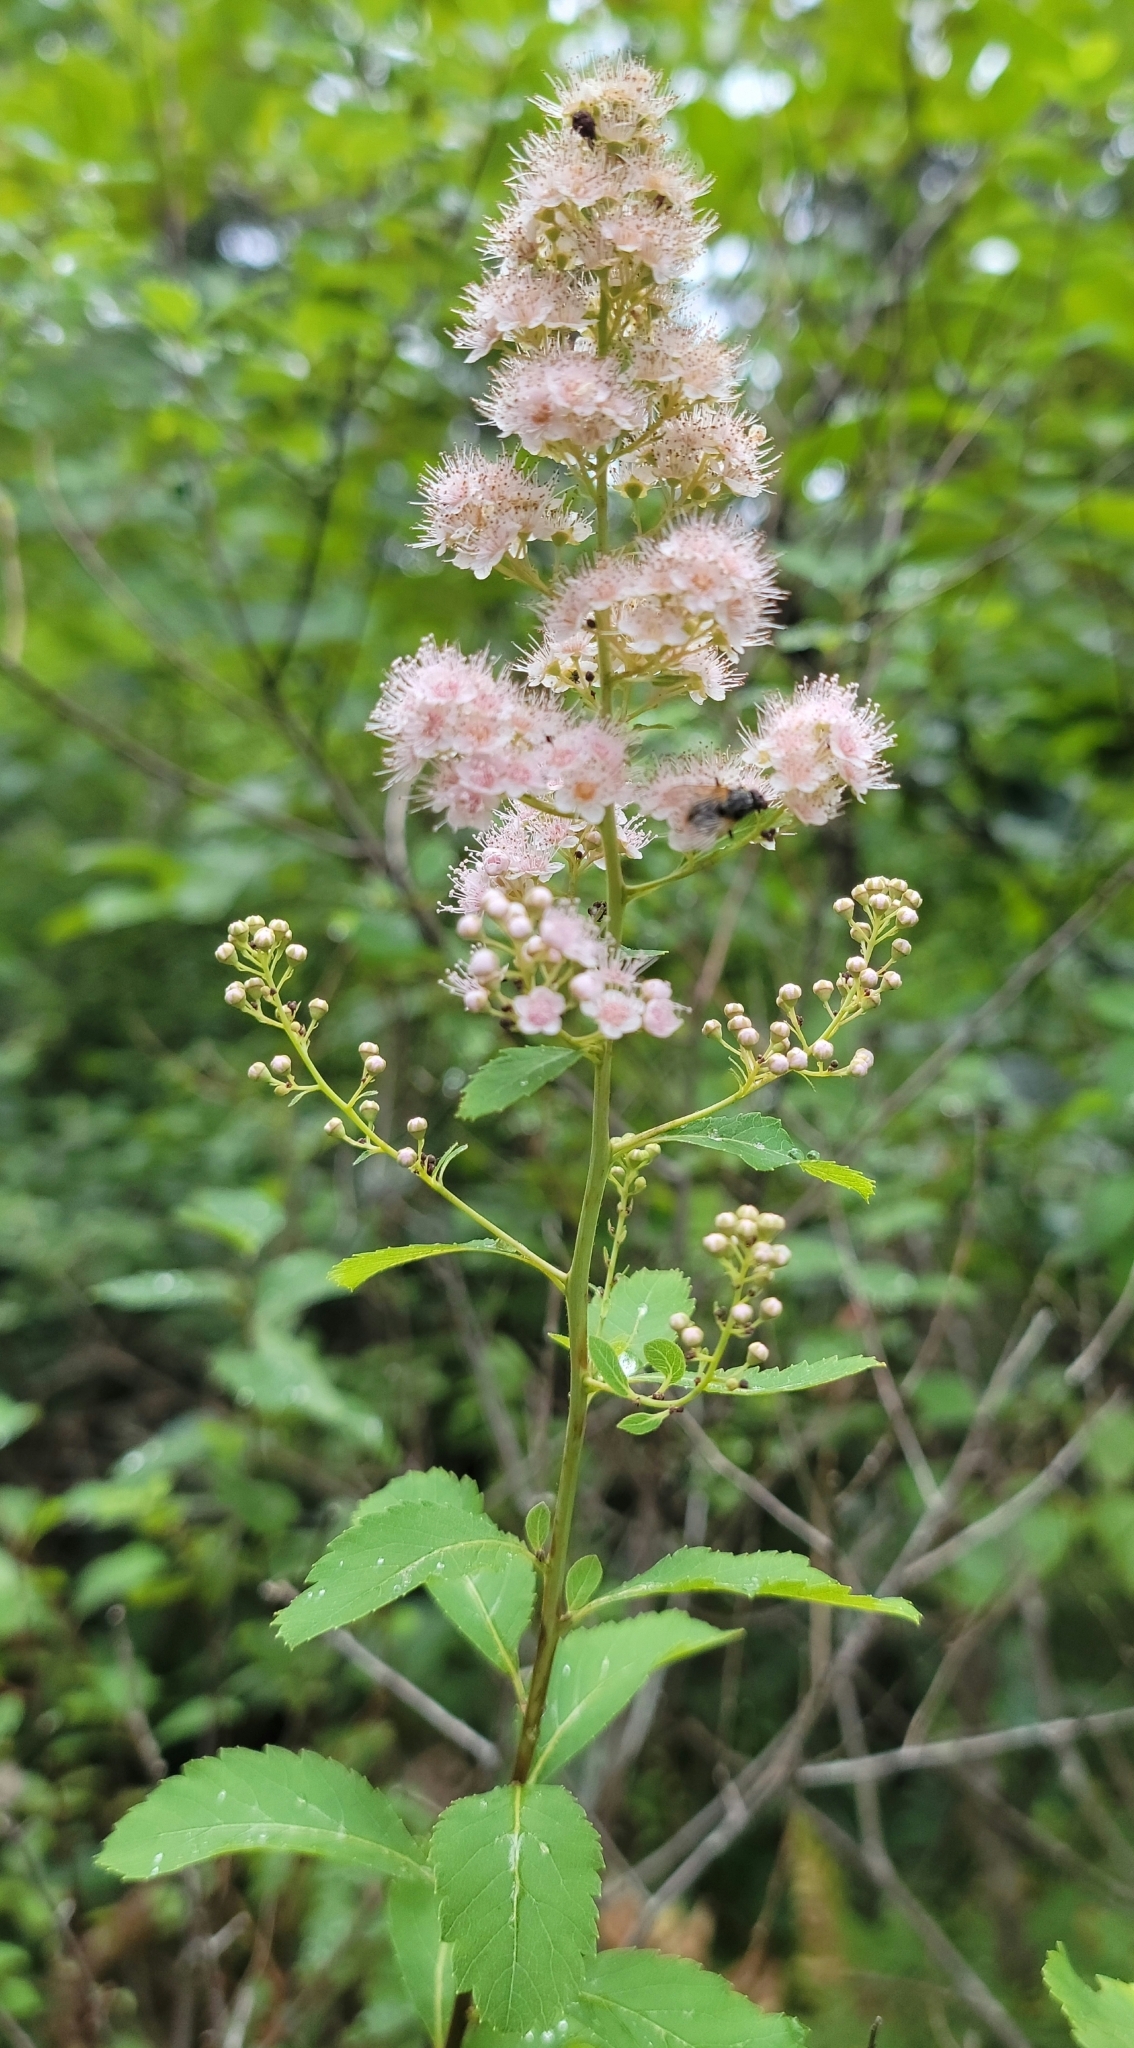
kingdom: Plantae
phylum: Tracheophyta
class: Magnoliopsida
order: Rosales
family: Rosaceae
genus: Spiraea
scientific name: Spiraea alba
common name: Pale bridewort
